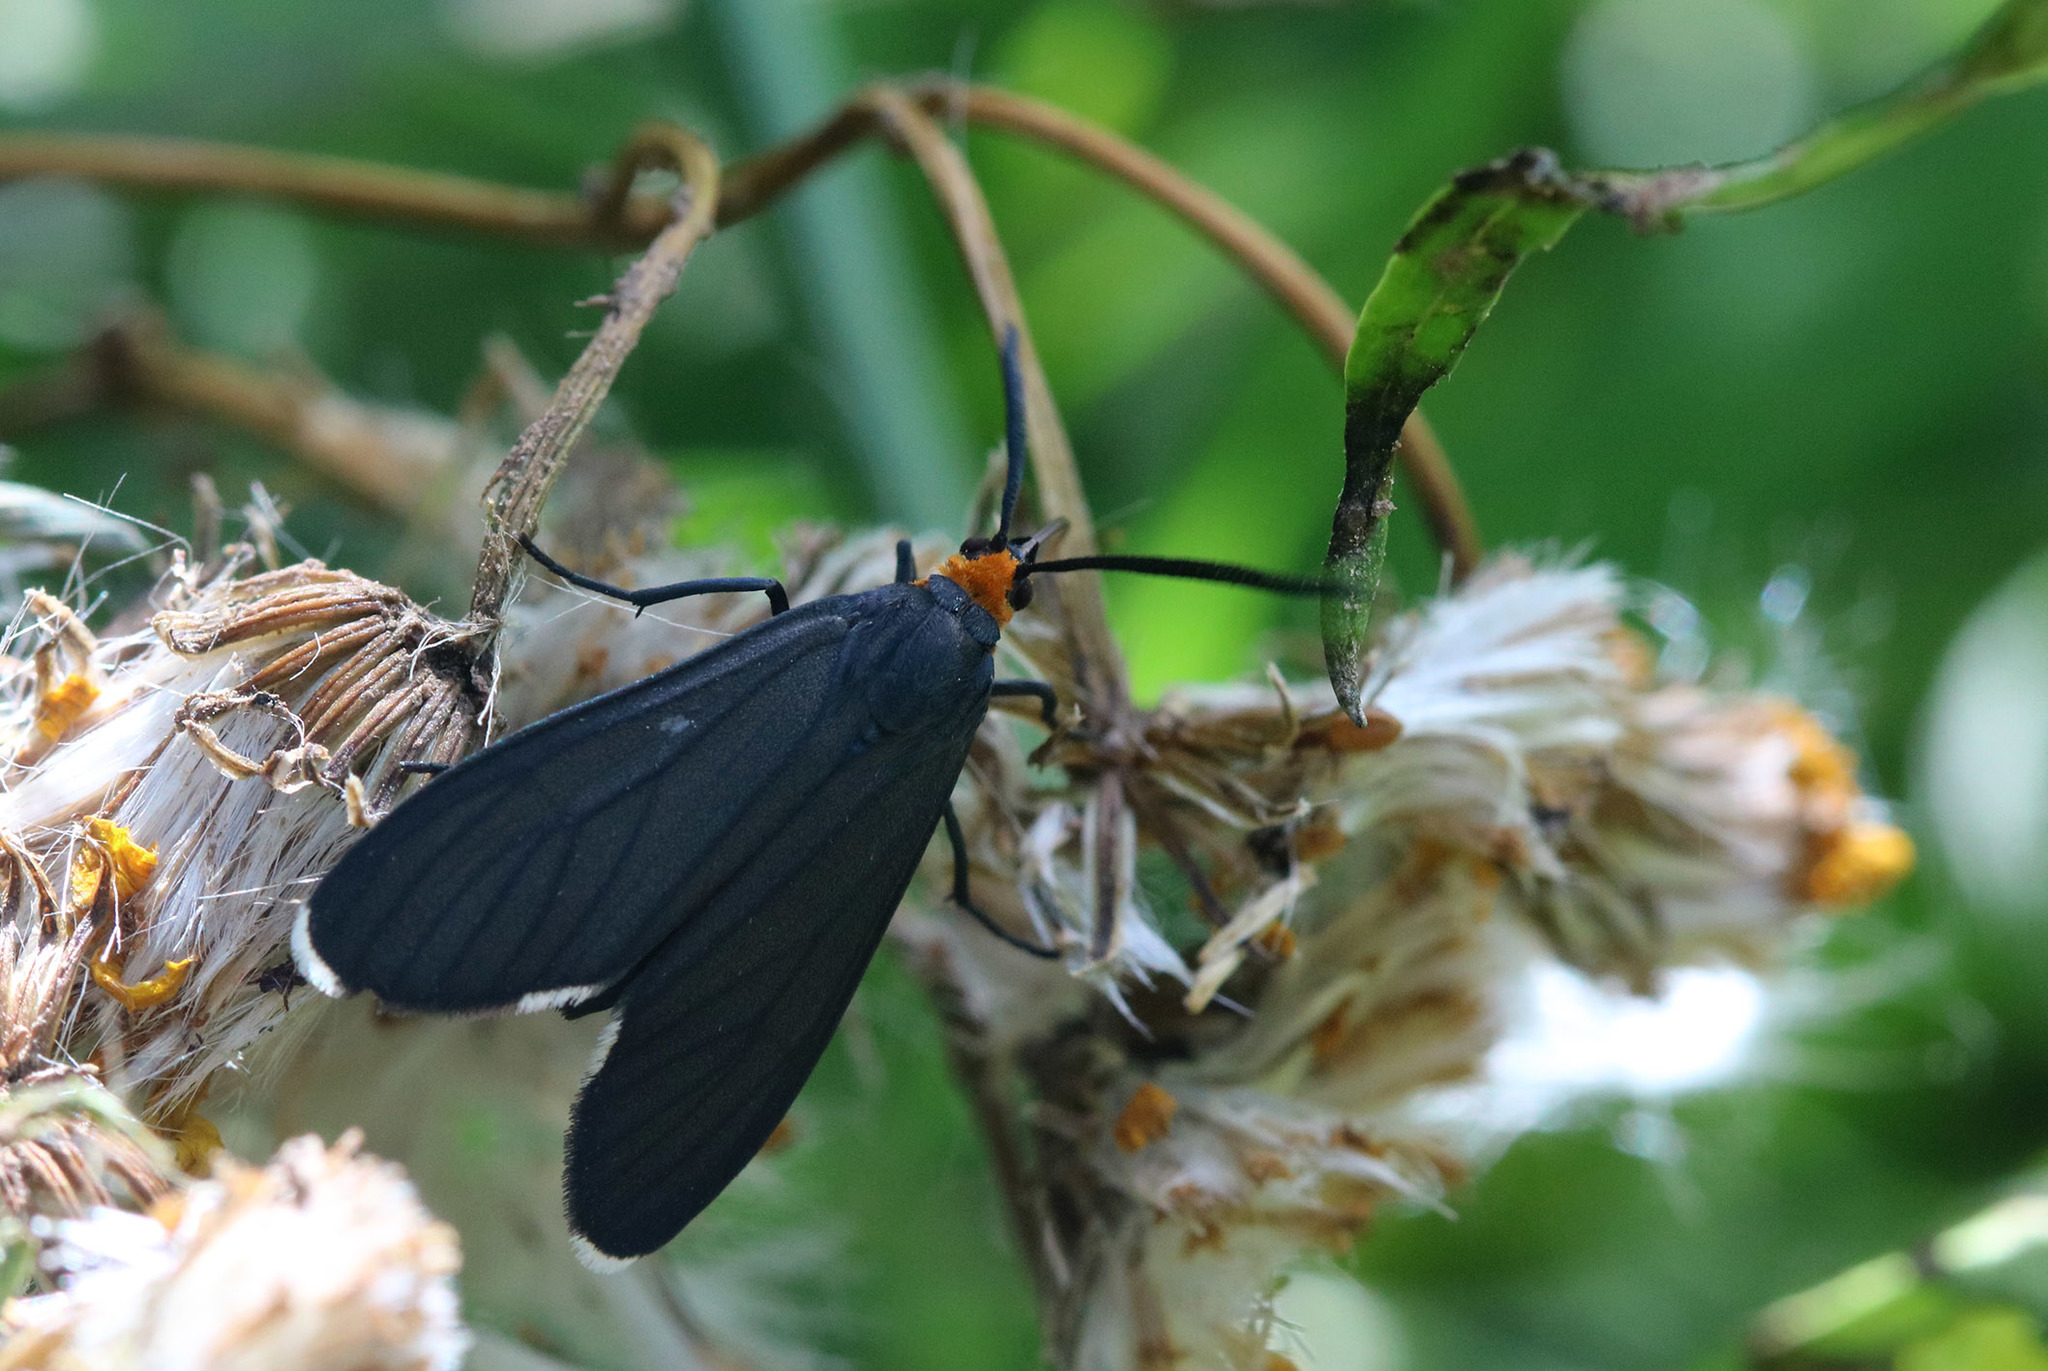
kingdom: Animalia
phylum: Arthropoda
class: Insecta
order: Lepidoptera
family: Erebidae
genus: Ctenucha
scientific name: Ctenucha rubriceps
